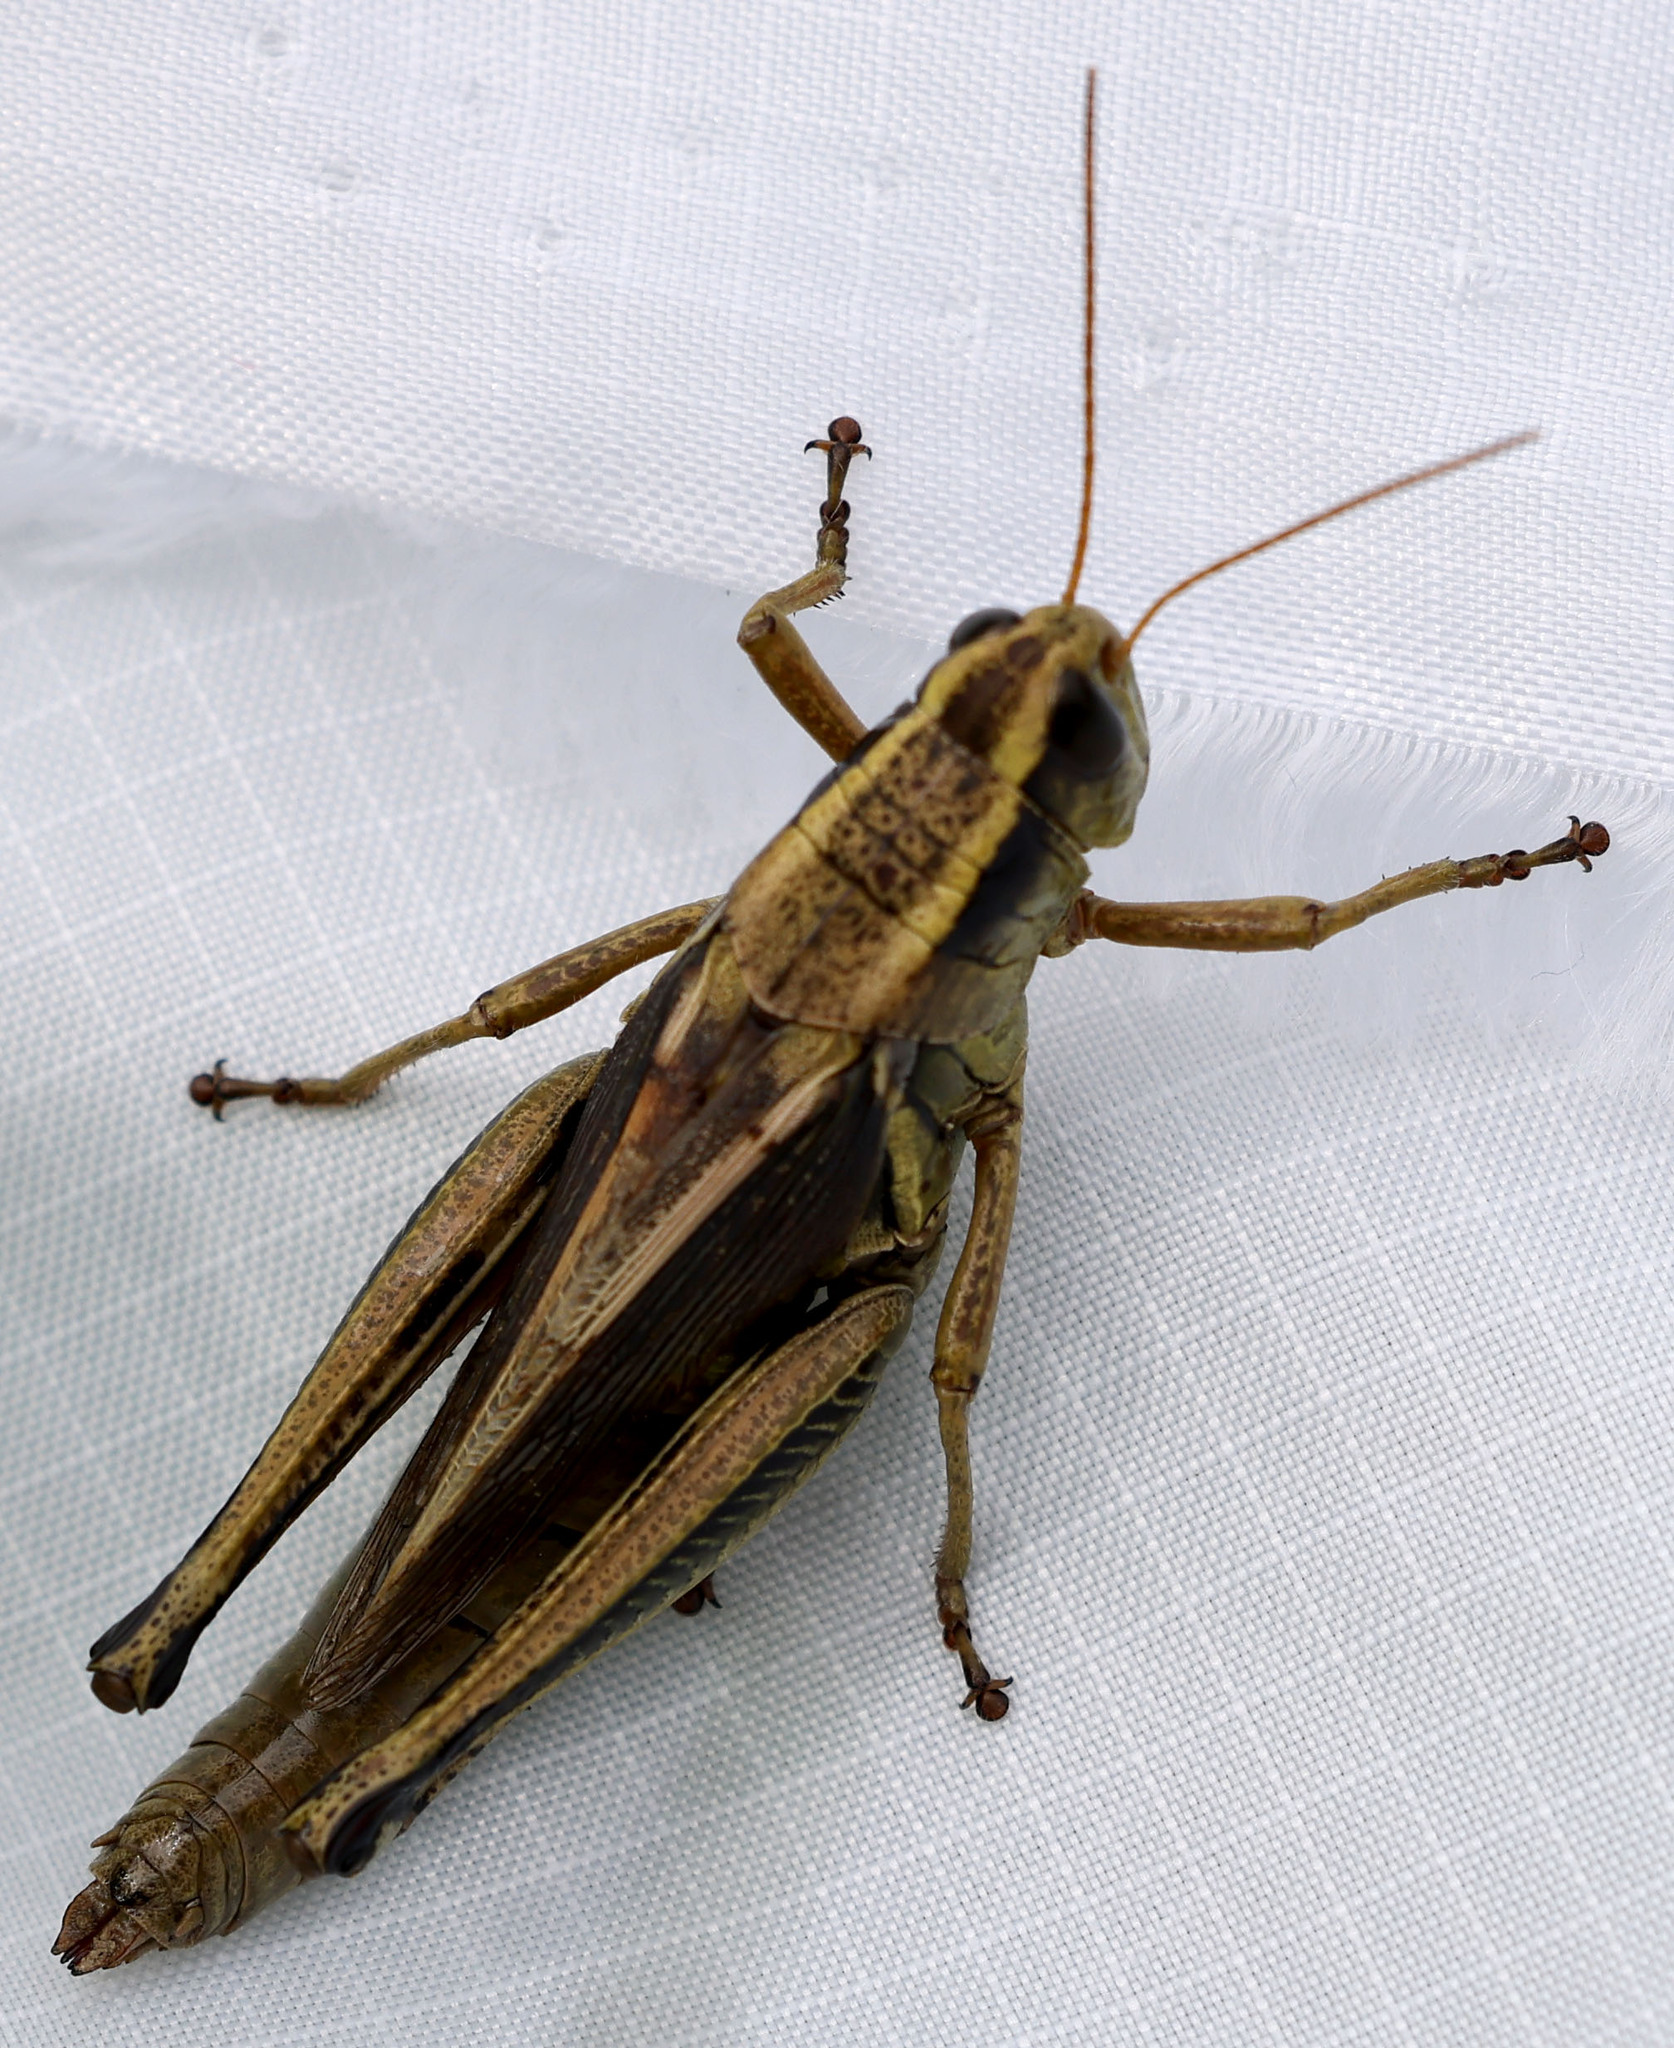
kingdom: Animalia
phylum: Arthropoda
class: Insecta
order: Orthoptera
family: Acrididae
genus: Melanoplus
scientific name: Melanoplus bivittatus
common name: Two-striped grasshopper
